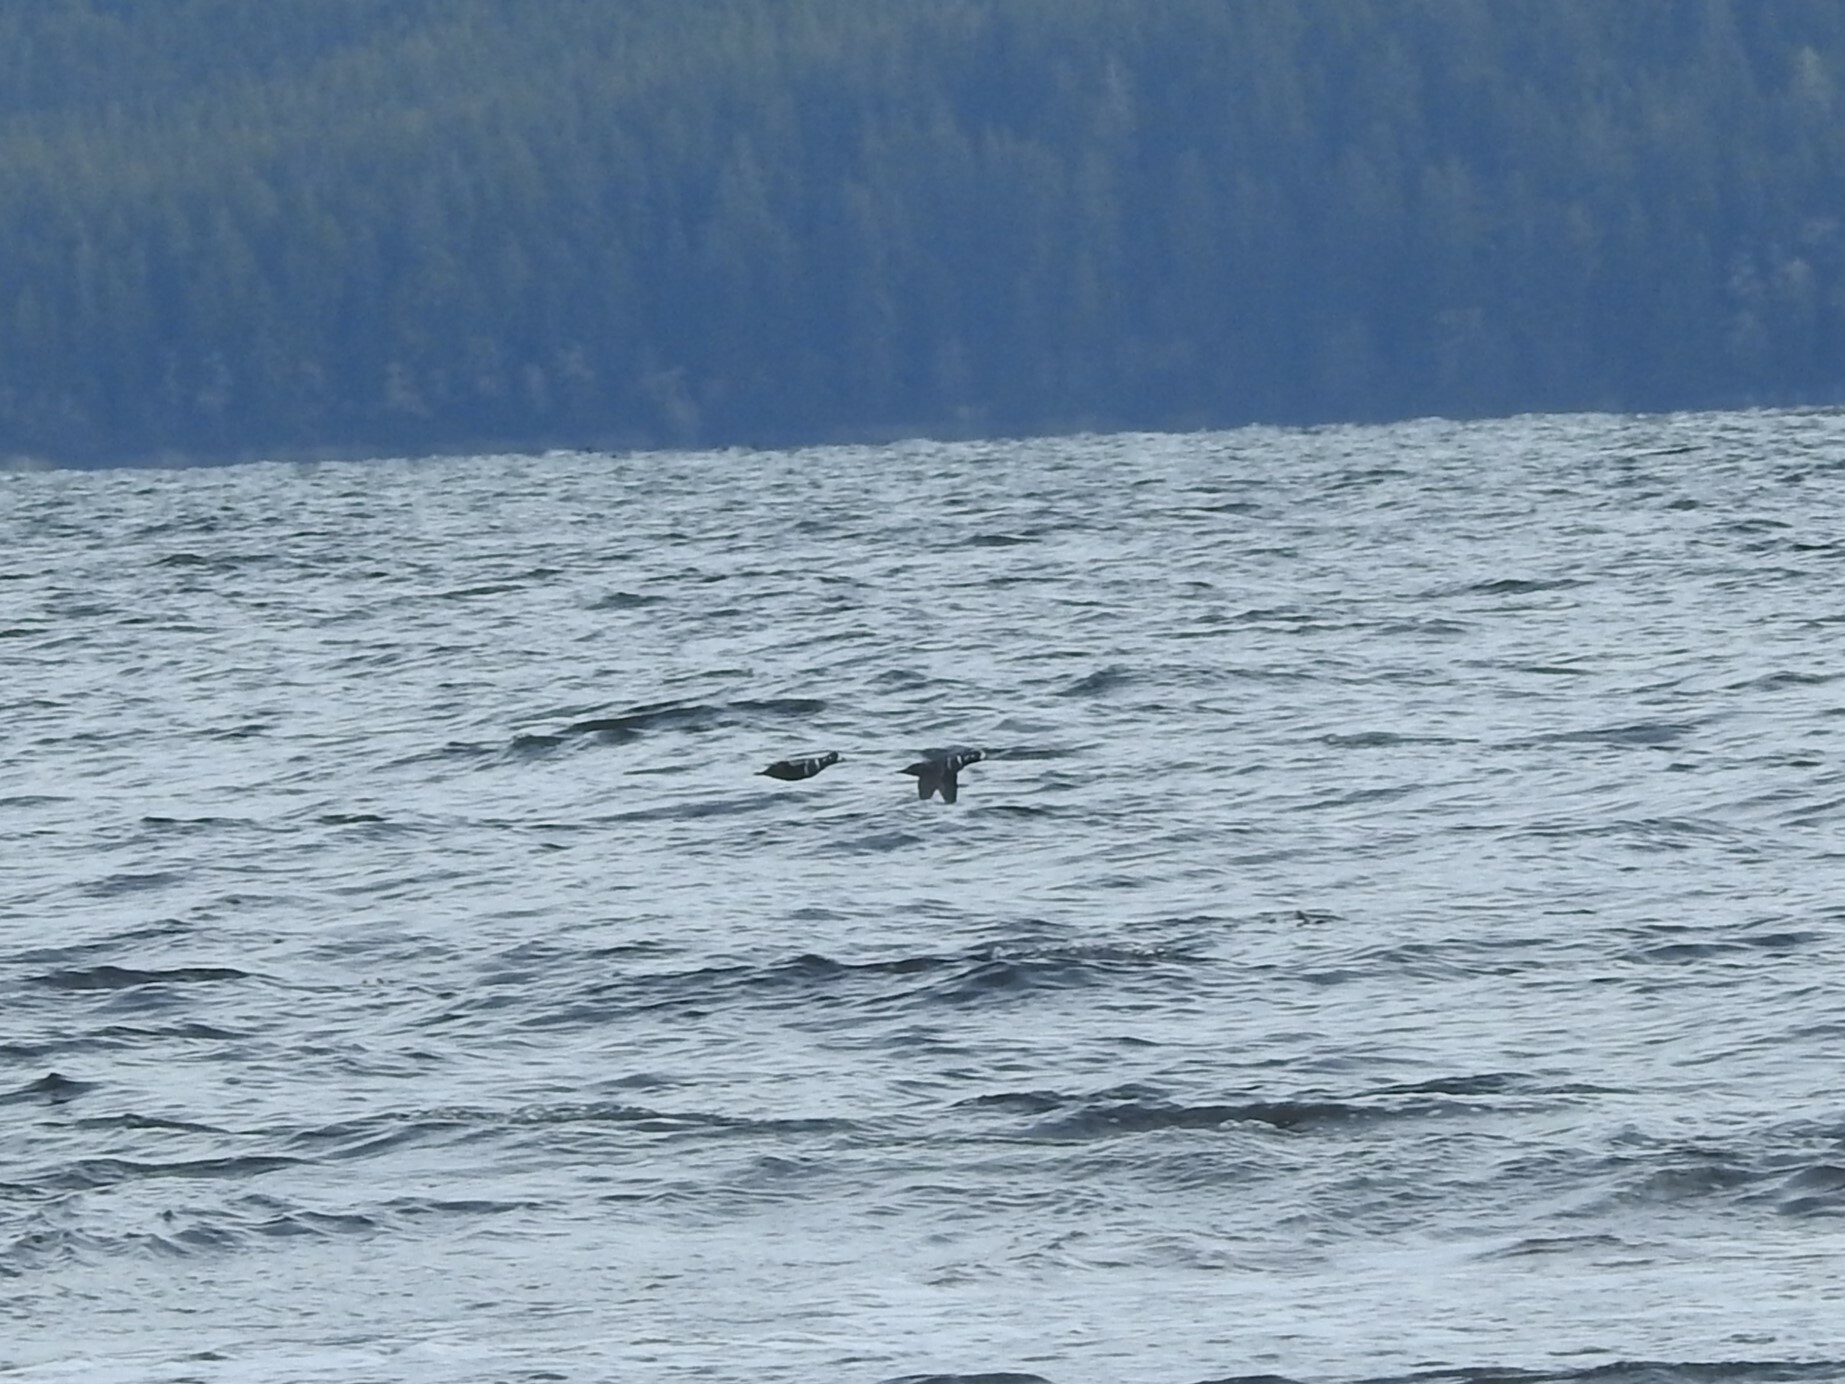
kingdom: Animalia
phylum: Chordata
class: Aves
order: Anseriformes
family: Anatidae
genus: Histrionicus
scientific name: Histrionicus histrionicus
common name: Harlequin duck
